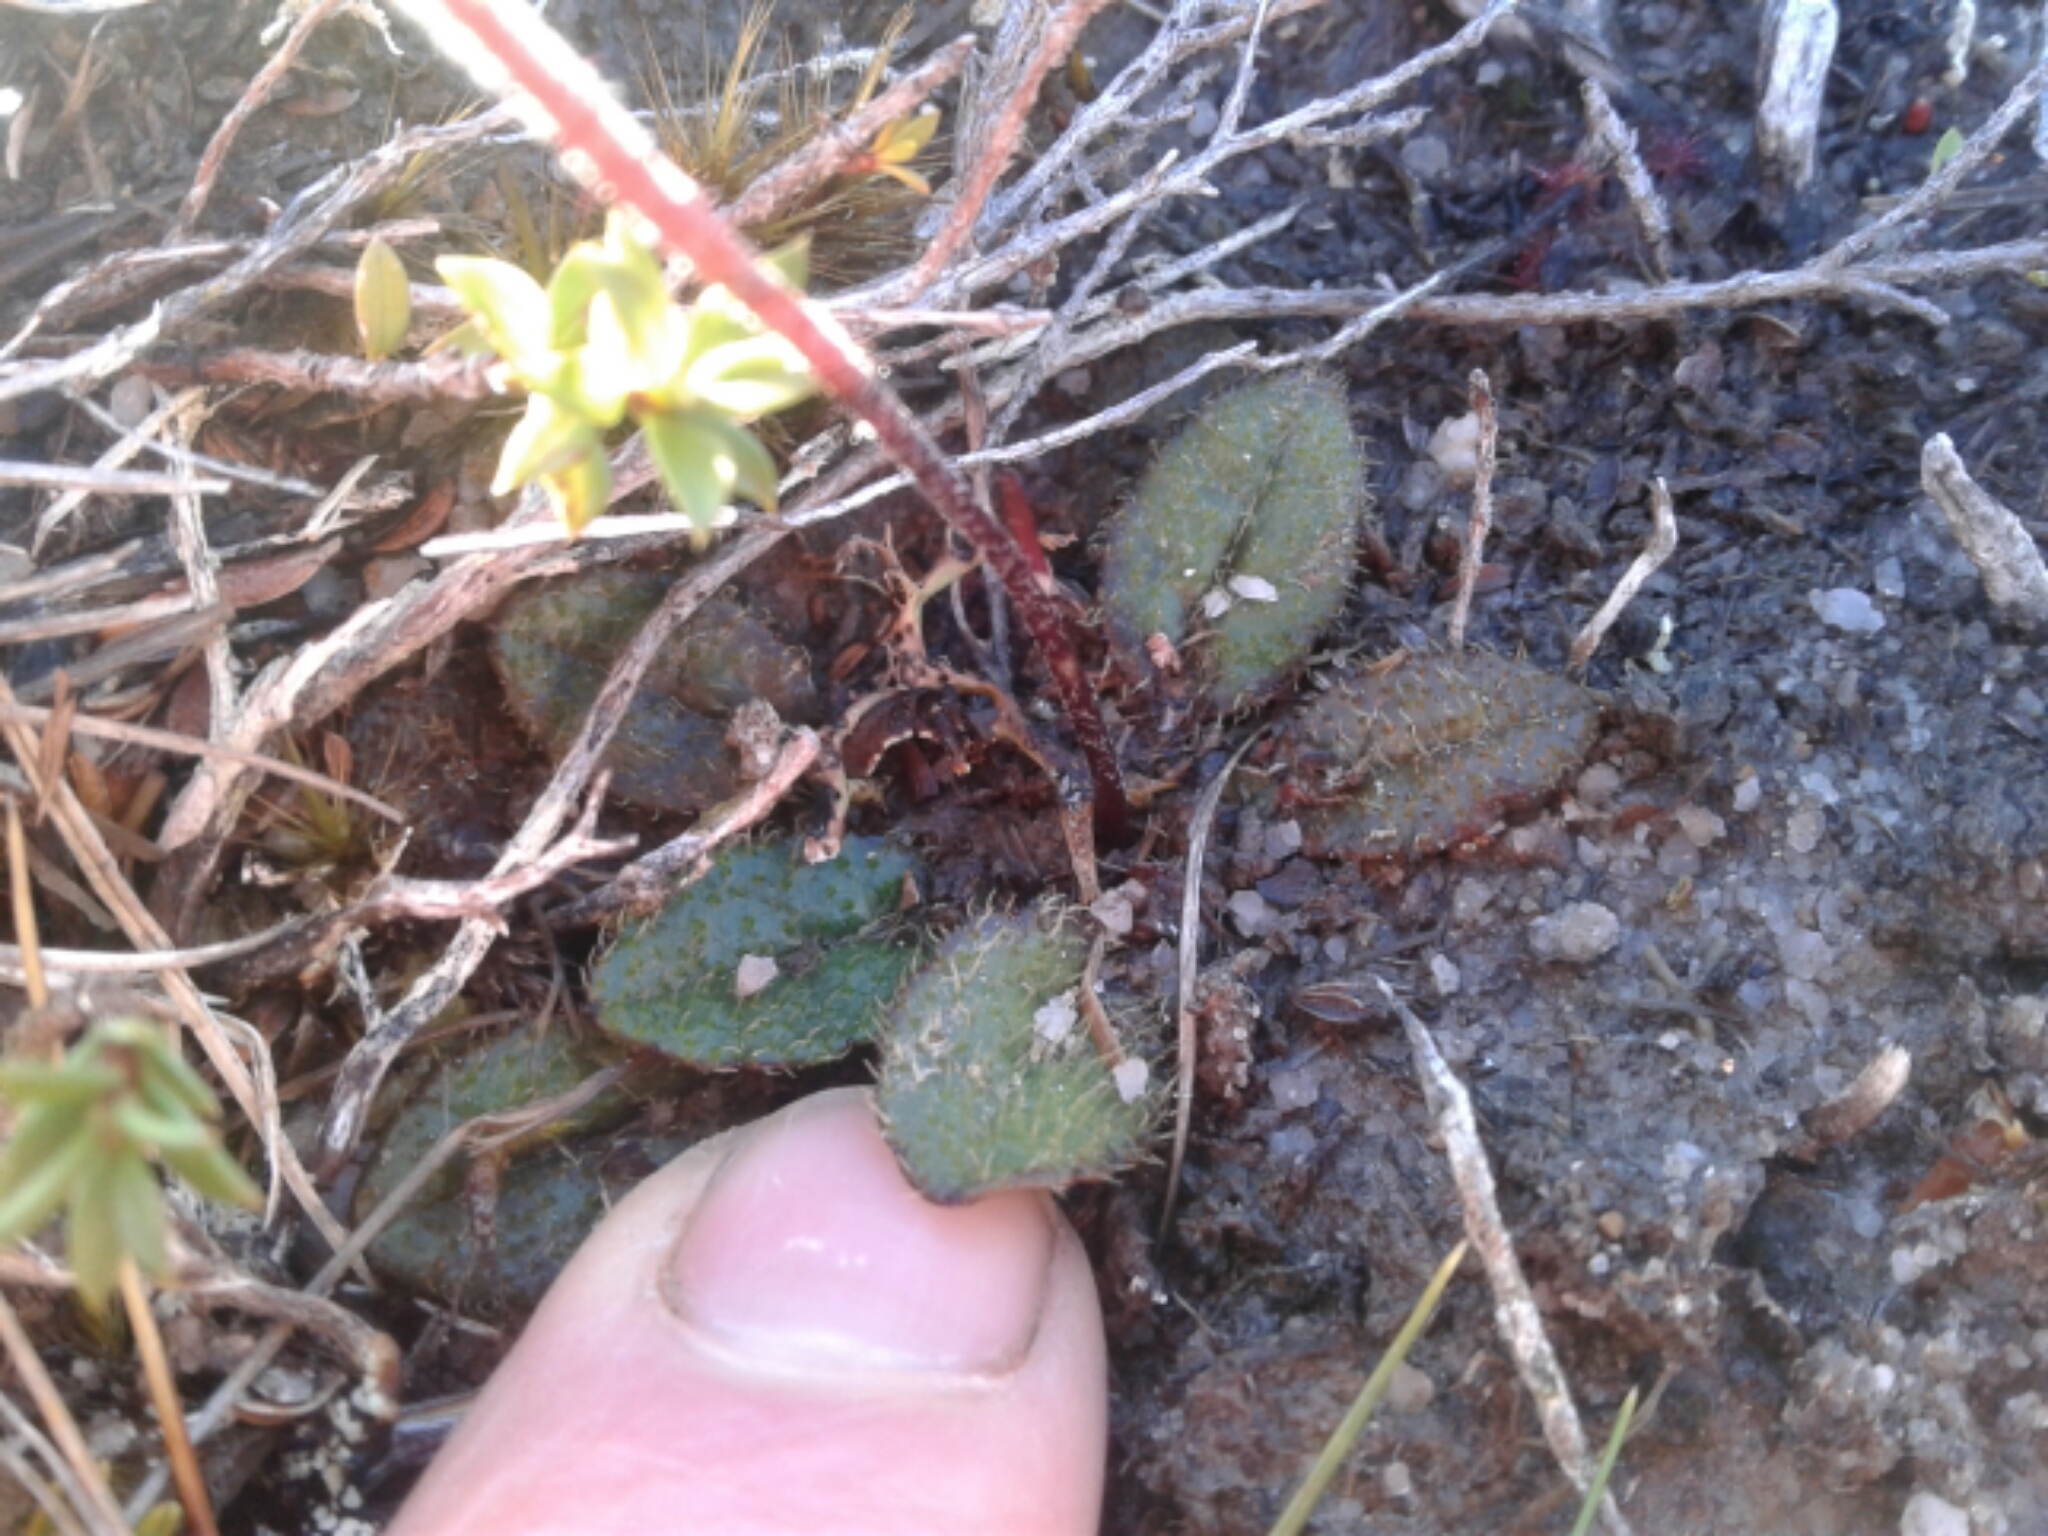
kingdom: Plantae
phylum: Tracheophyta
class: Magnoliopsida
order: Asterales
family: Asteraceae
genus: Brachyglottis
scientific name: Brachyglottis bellidioides
